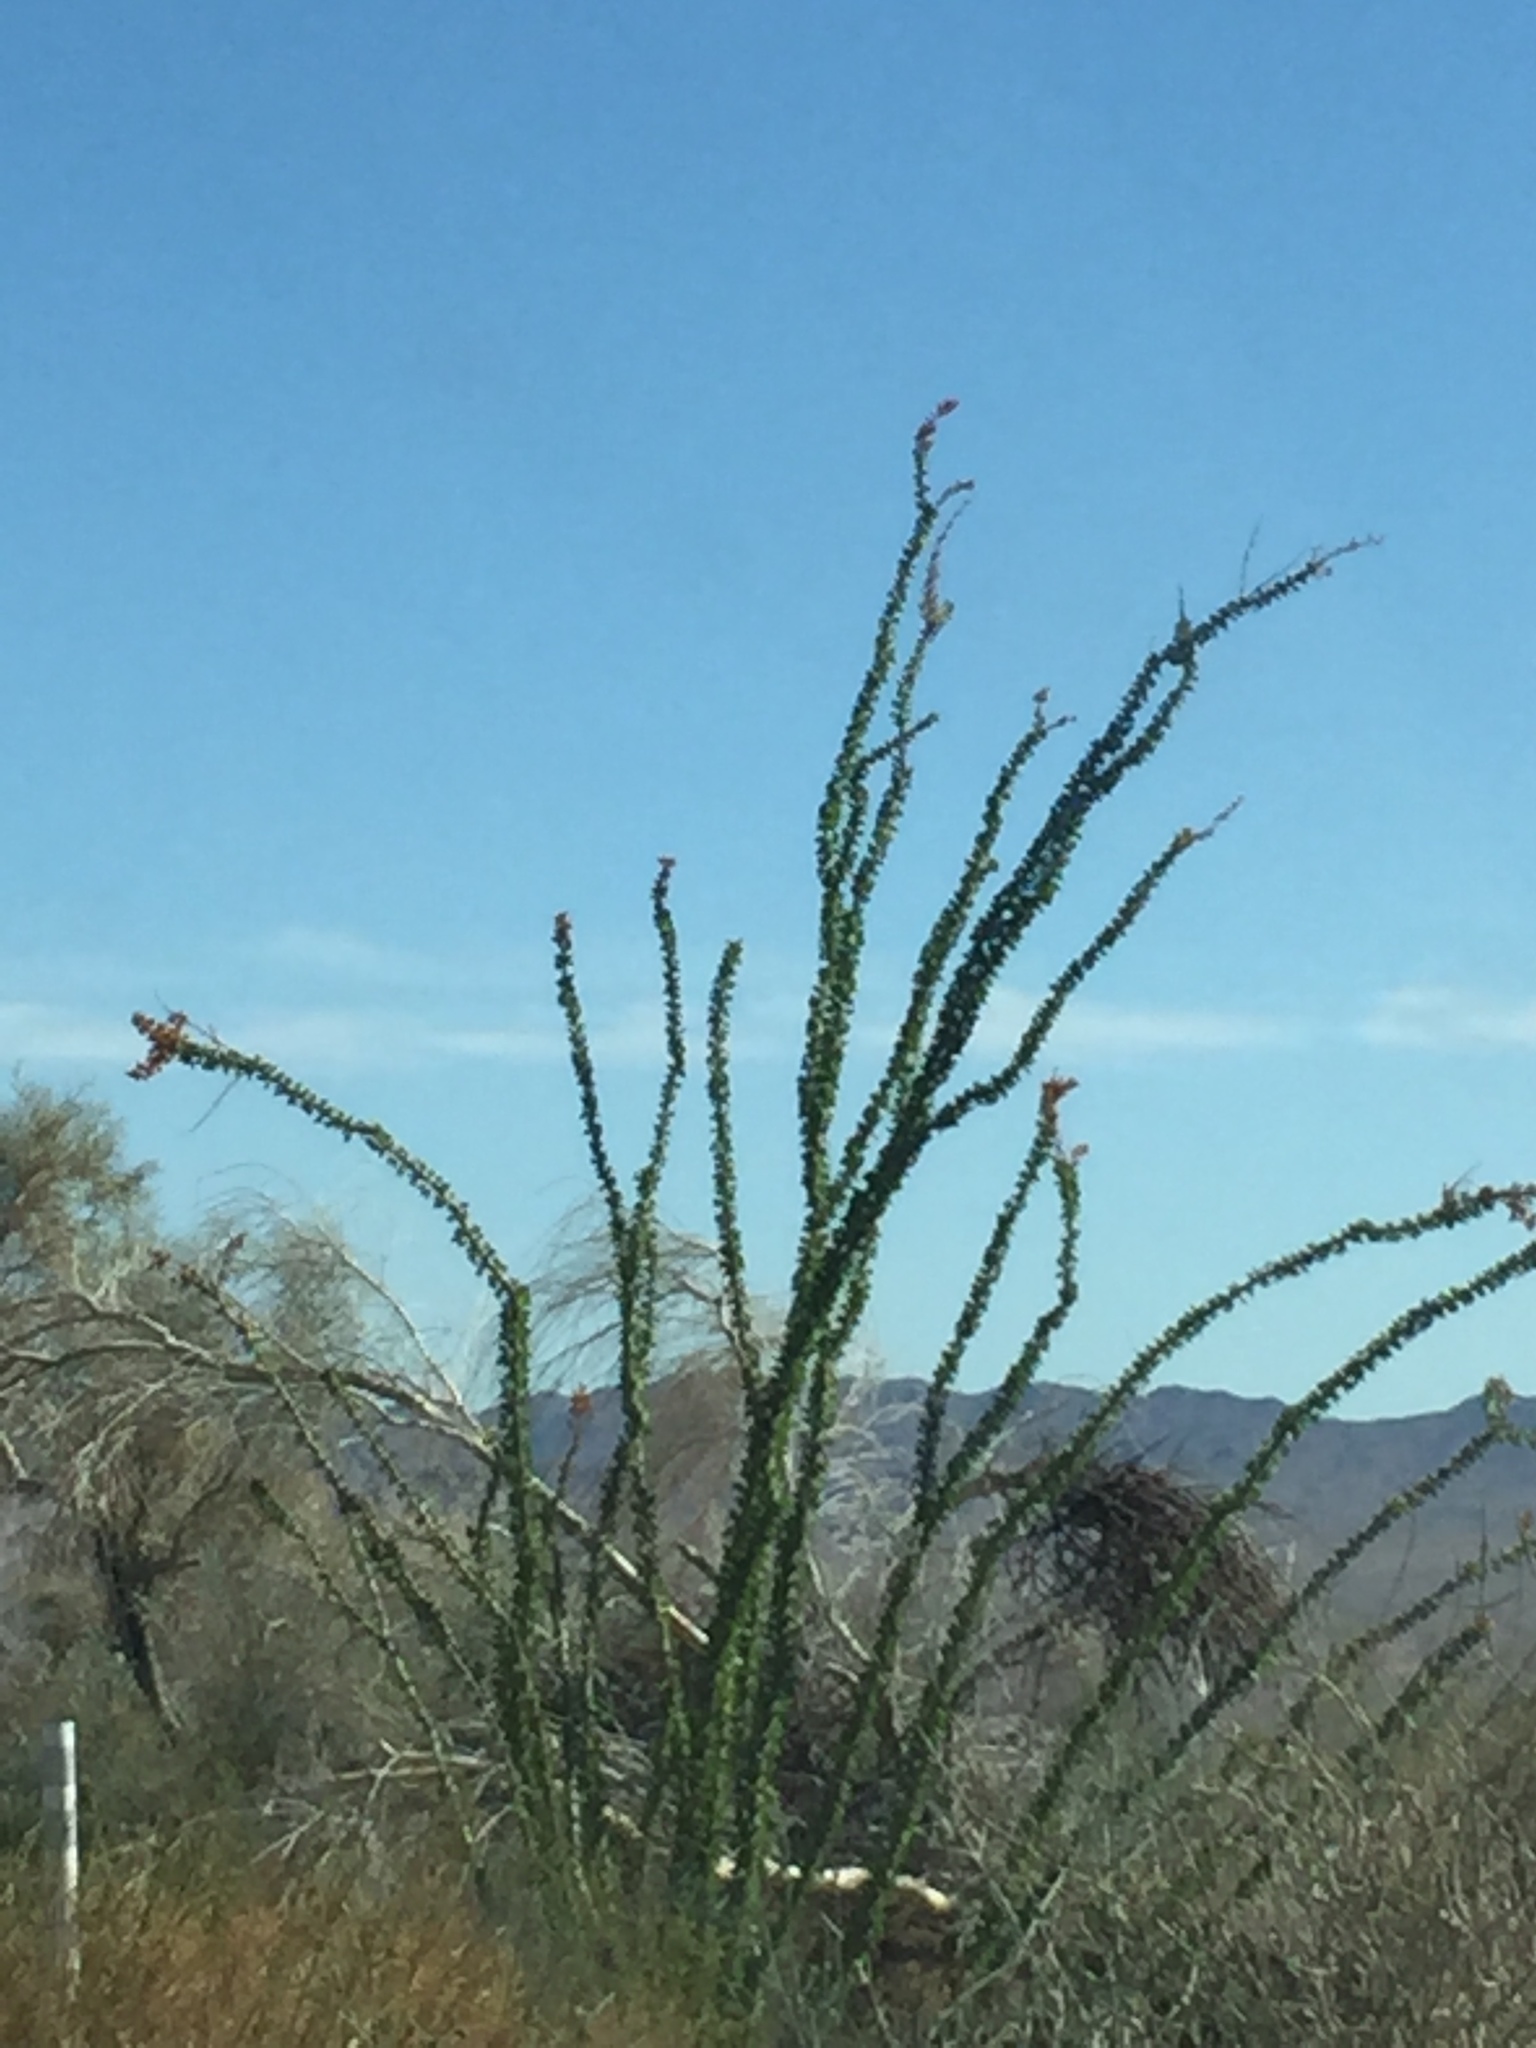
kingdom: Plantae
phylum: Tracheophyta
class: Magnoliopsida
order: Ericales
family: Fouquieriaceae
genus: Fouquieria
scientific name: Fouquieria splendens
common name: Vine-cactus
